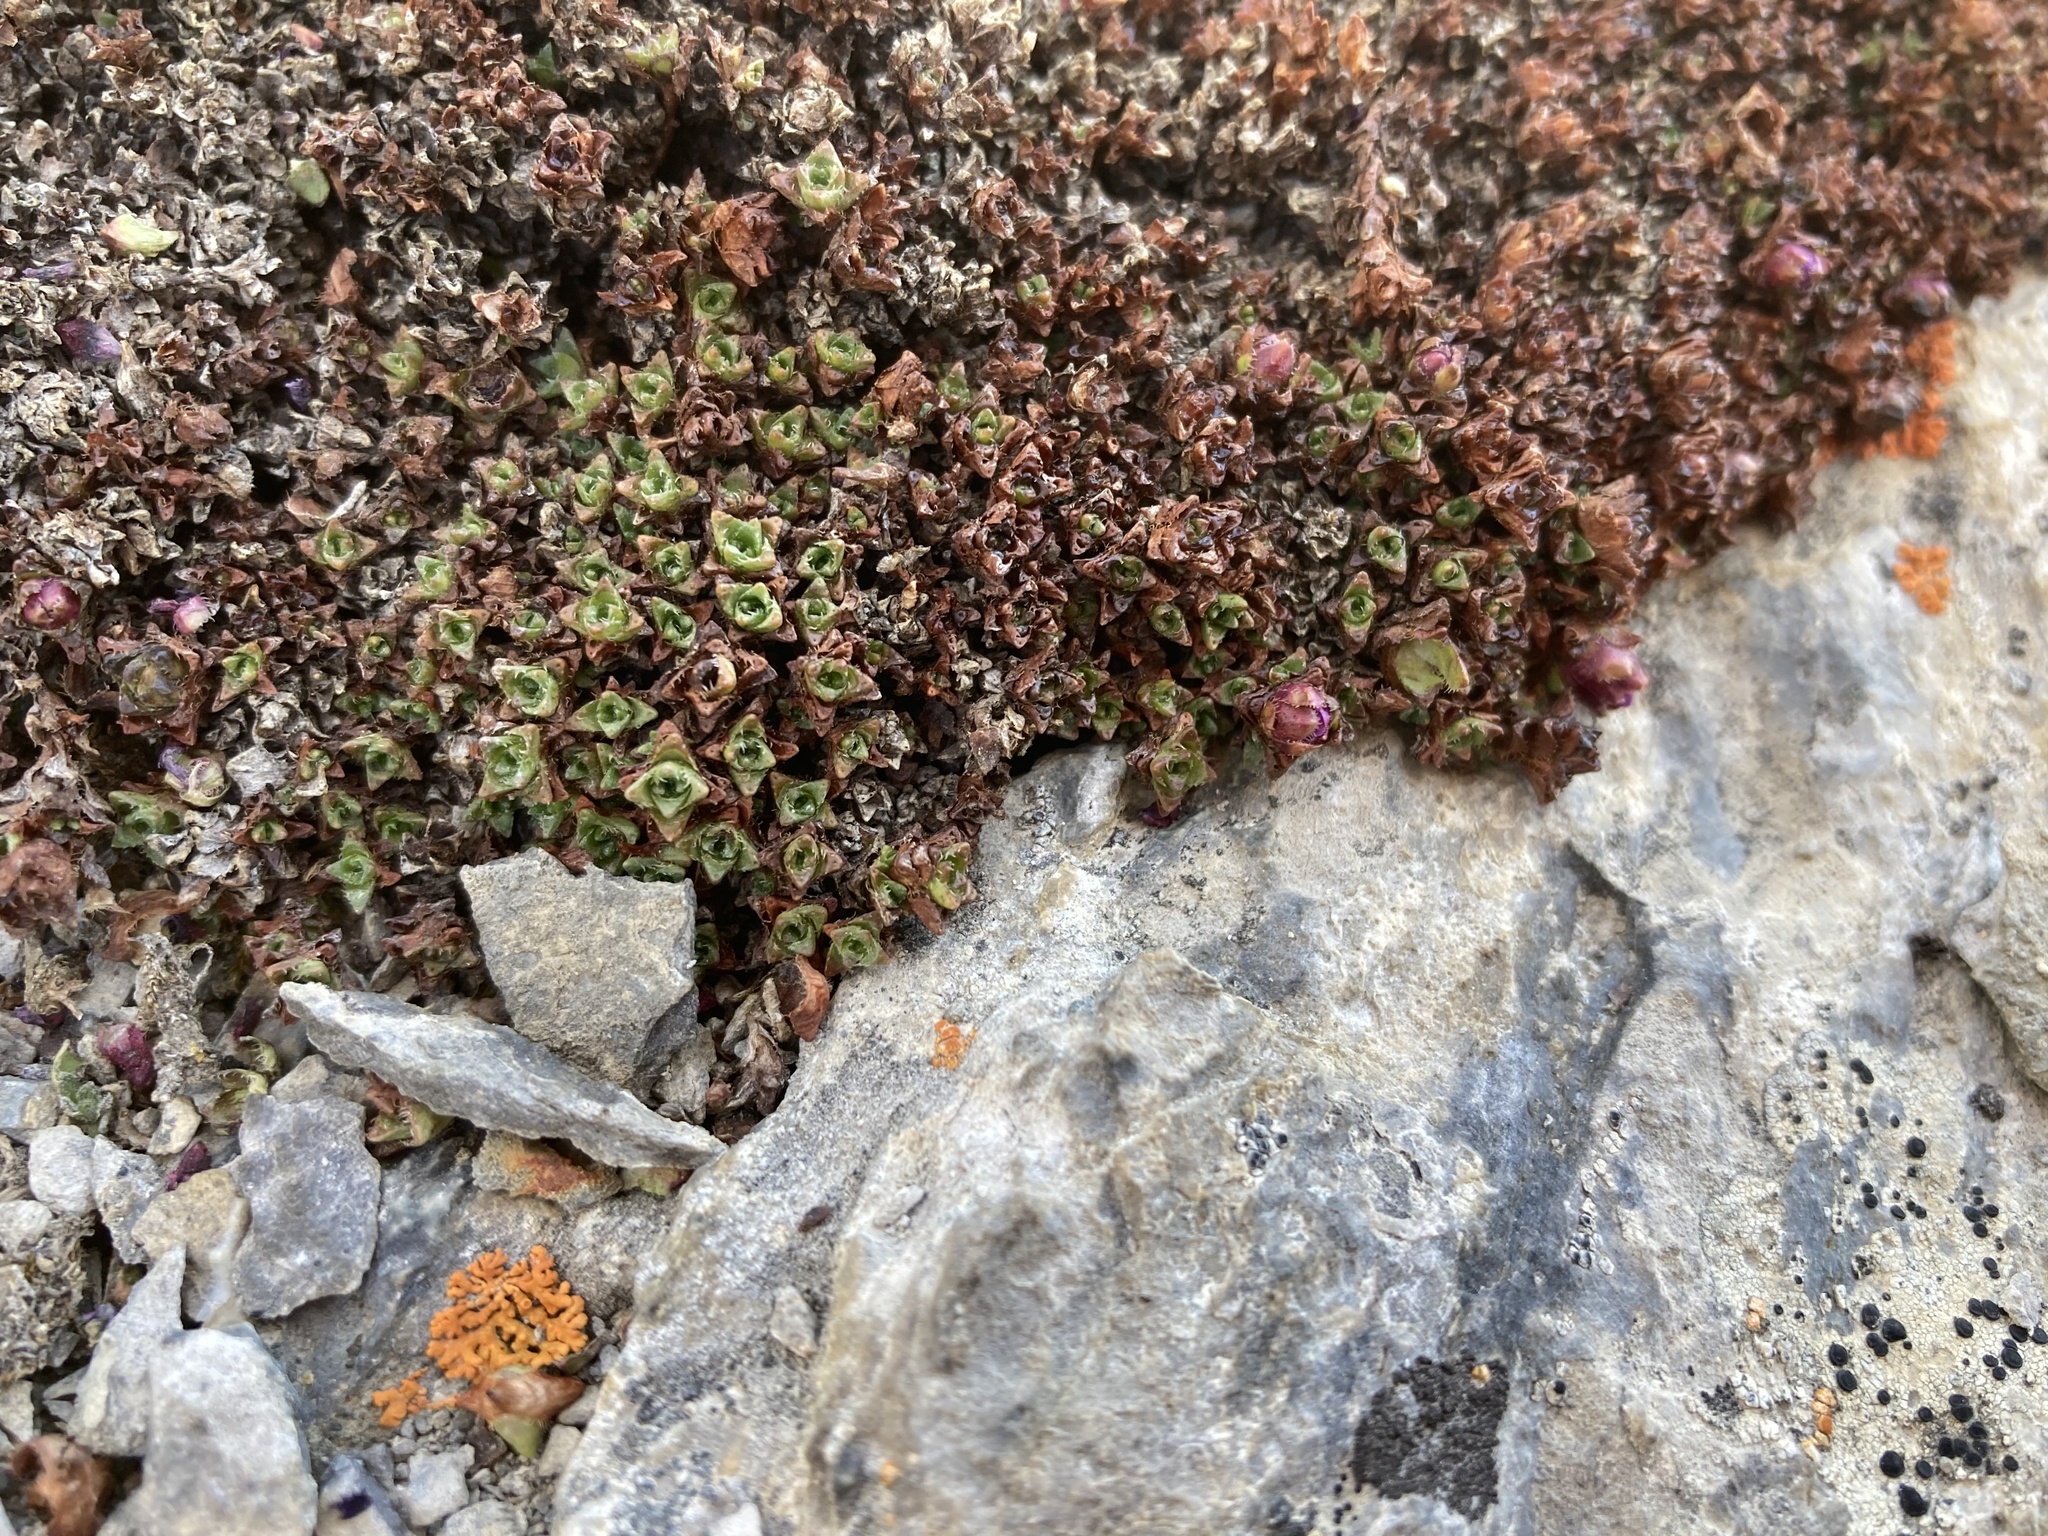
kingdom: Plantae
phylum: Tracheophyta
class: Magnoliopsida
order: Saxifragales
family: Saxifragaceae
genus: Saxifraga
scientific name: Saxifraga oppositifolia
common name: Purple saxifrage
